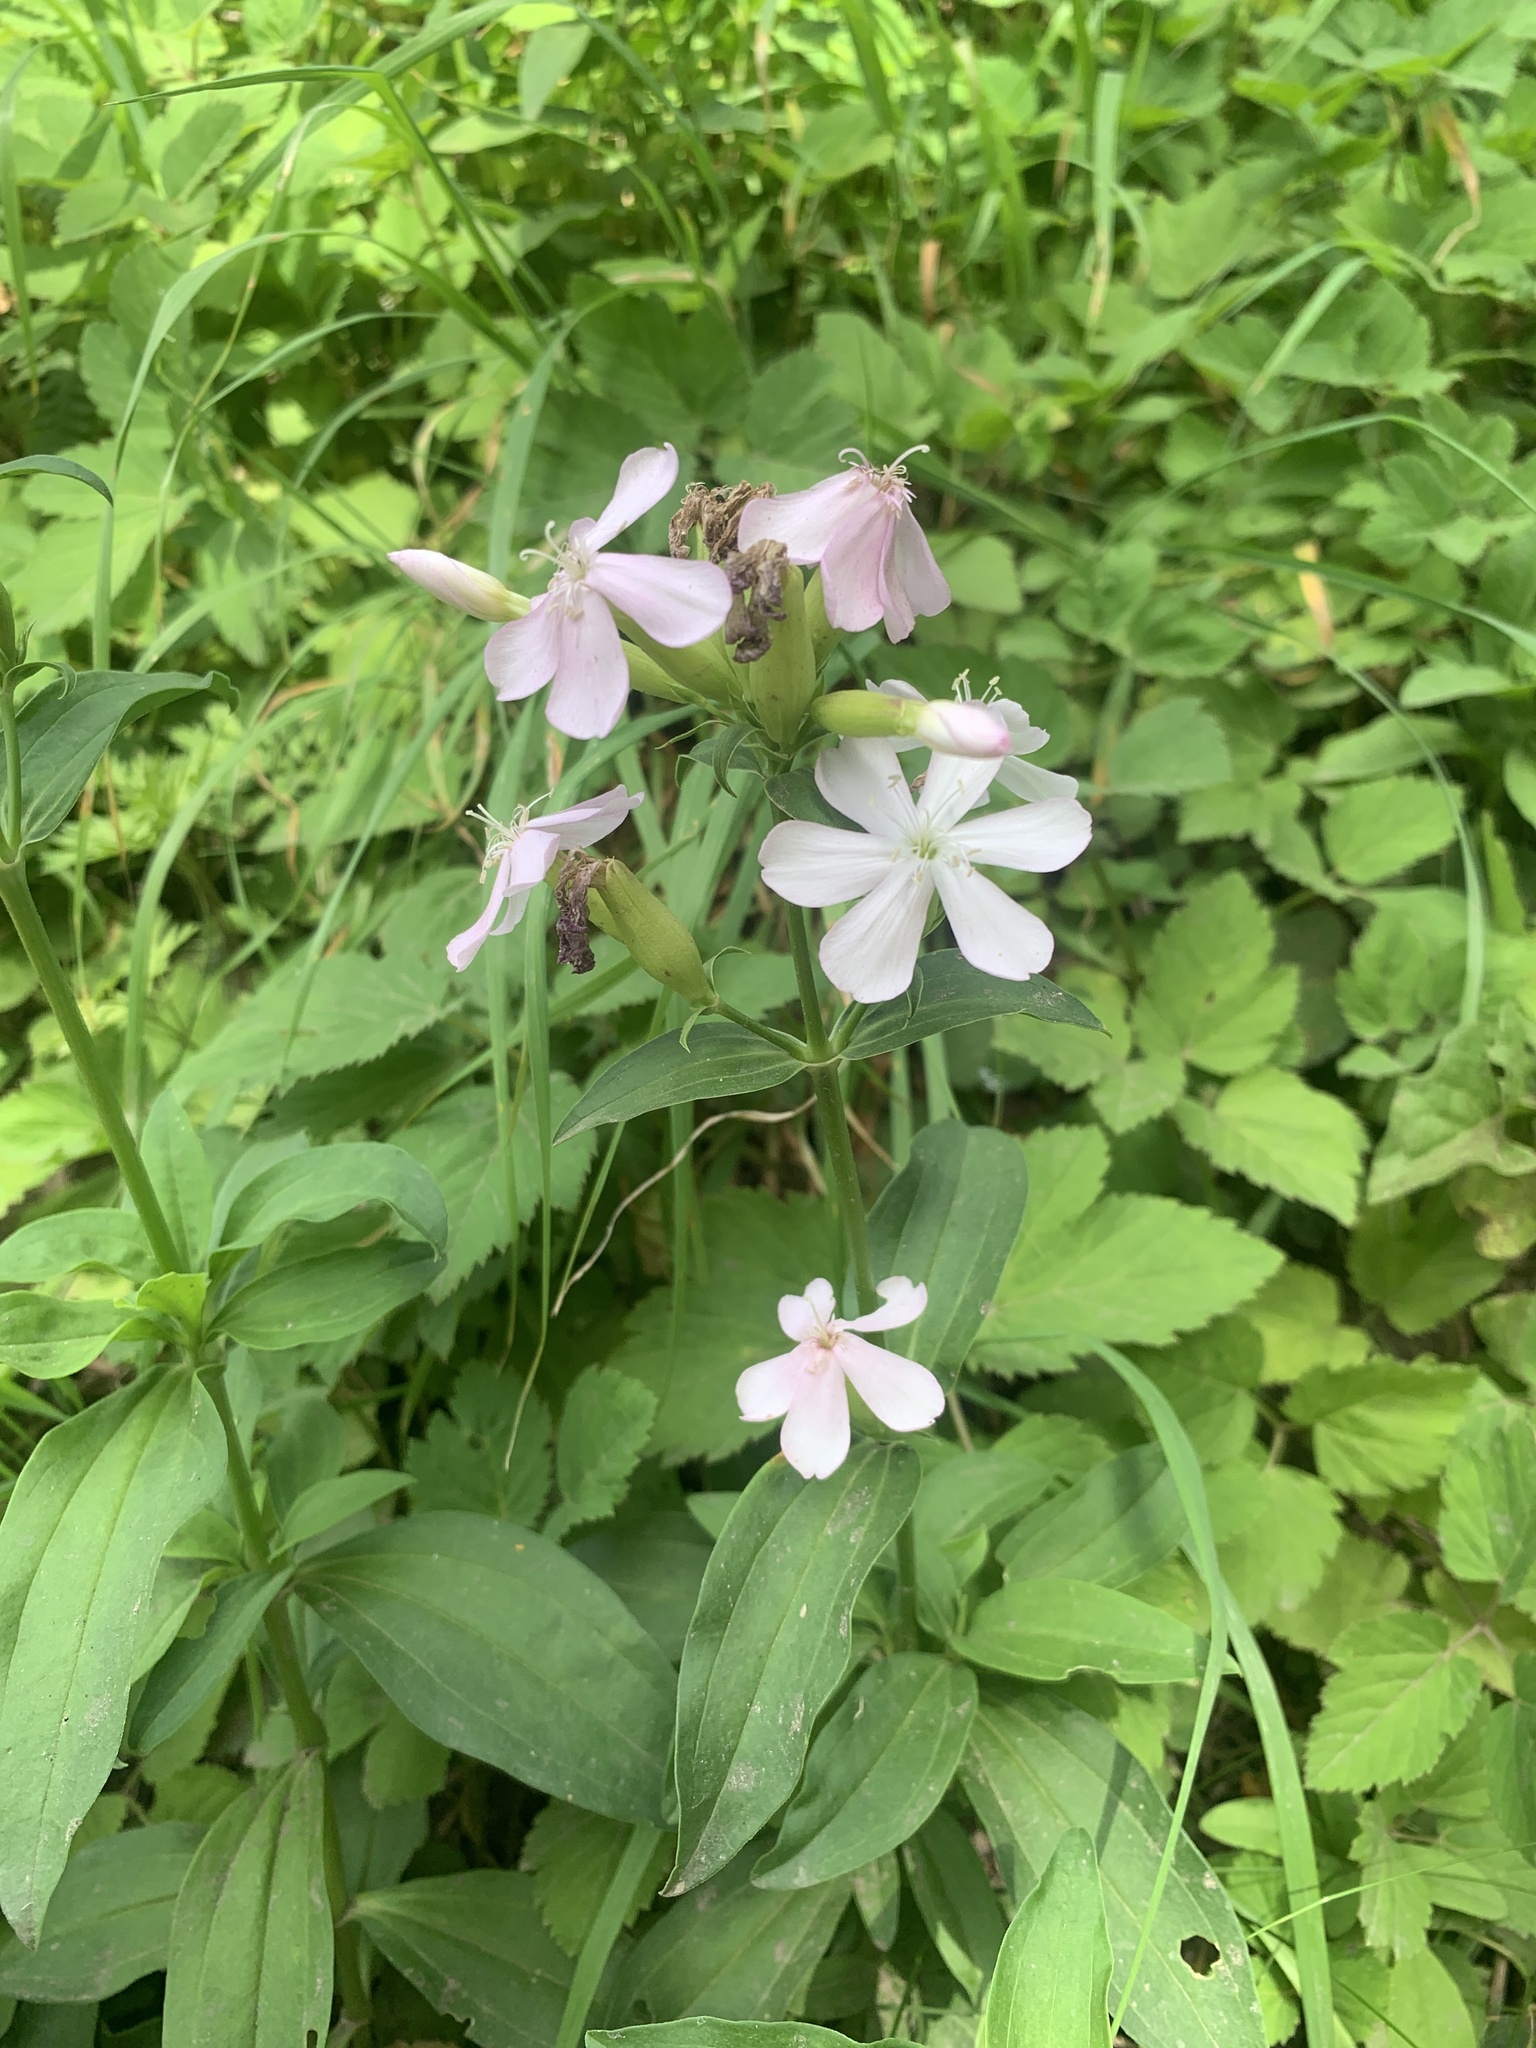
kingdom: Plantae
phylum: Tracheophyta
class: Magnoliopsida
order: Caryophyllales
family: Caryophyllaceae
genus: Saponaria
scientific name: Saponaria officinalis
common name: Soapwort
